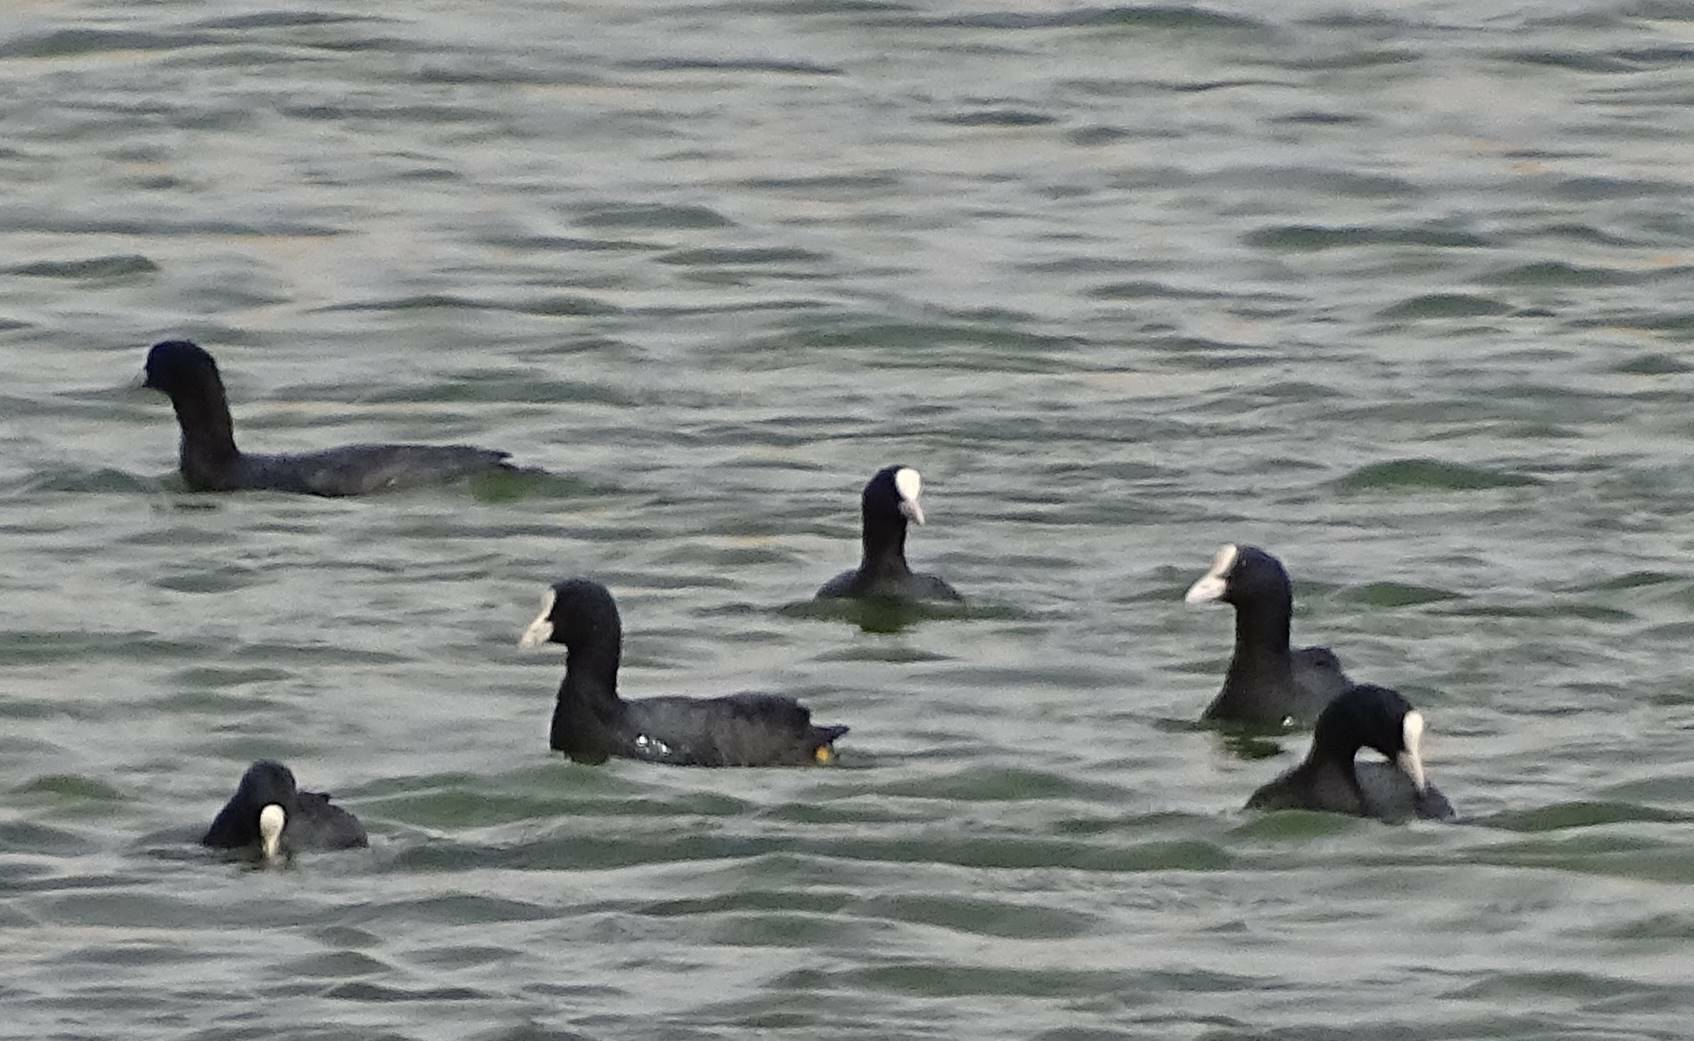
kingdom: Animalia
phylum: Chordata
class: Aves
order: Gruiformes
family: Rallidae
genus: Fulica
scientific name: Fulica atra
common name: Eurasian coot
